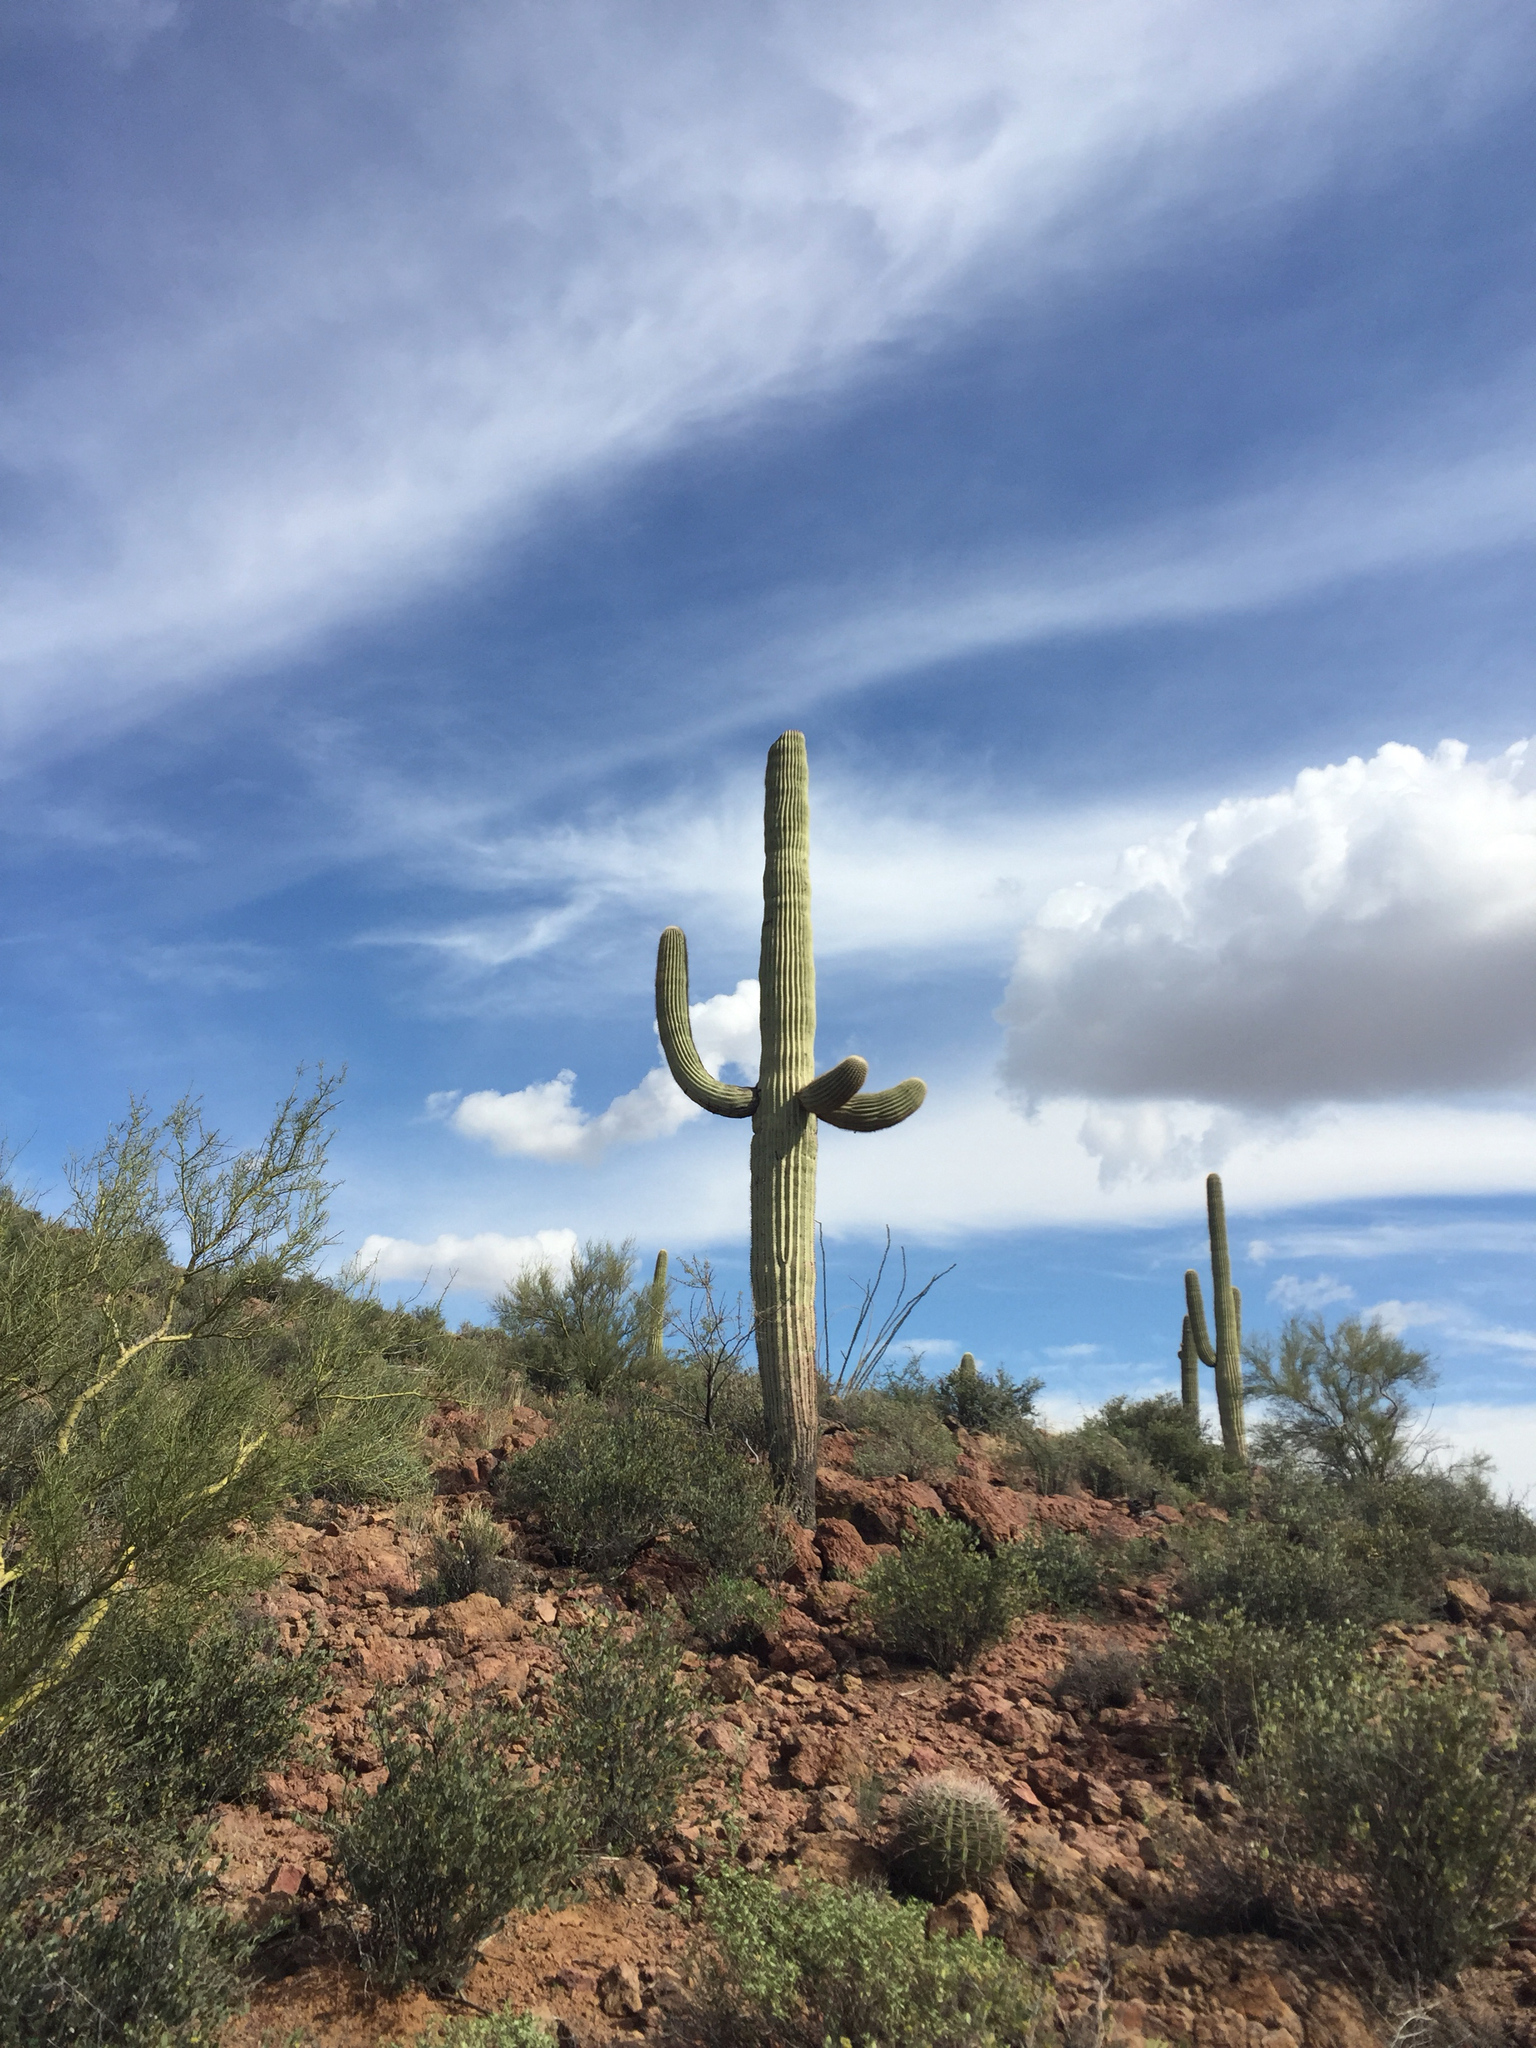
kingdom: Plantae
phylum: Tracheophyta
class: Magnoliopsida
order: Caryophyllales
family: Cactaceae
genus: Carnegiea
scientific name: Carnegiea gigantea
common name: Saguaro
